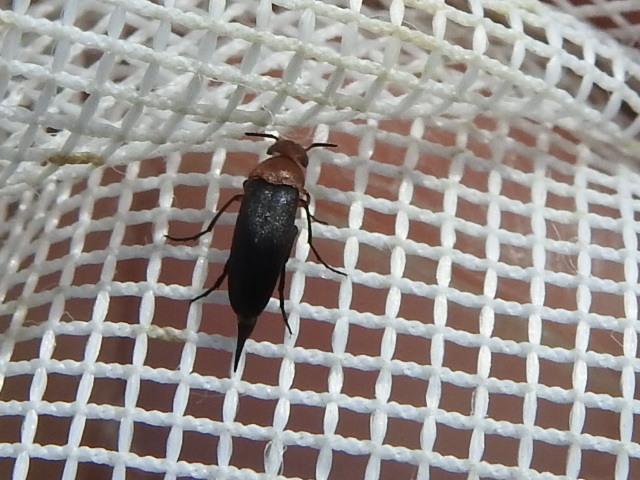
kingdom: Animalia
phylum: Arthropoda
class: Insecta
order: Coleoptera
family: Mordellidae
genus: Mordellistena
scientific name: Mordellistena cervicalis
